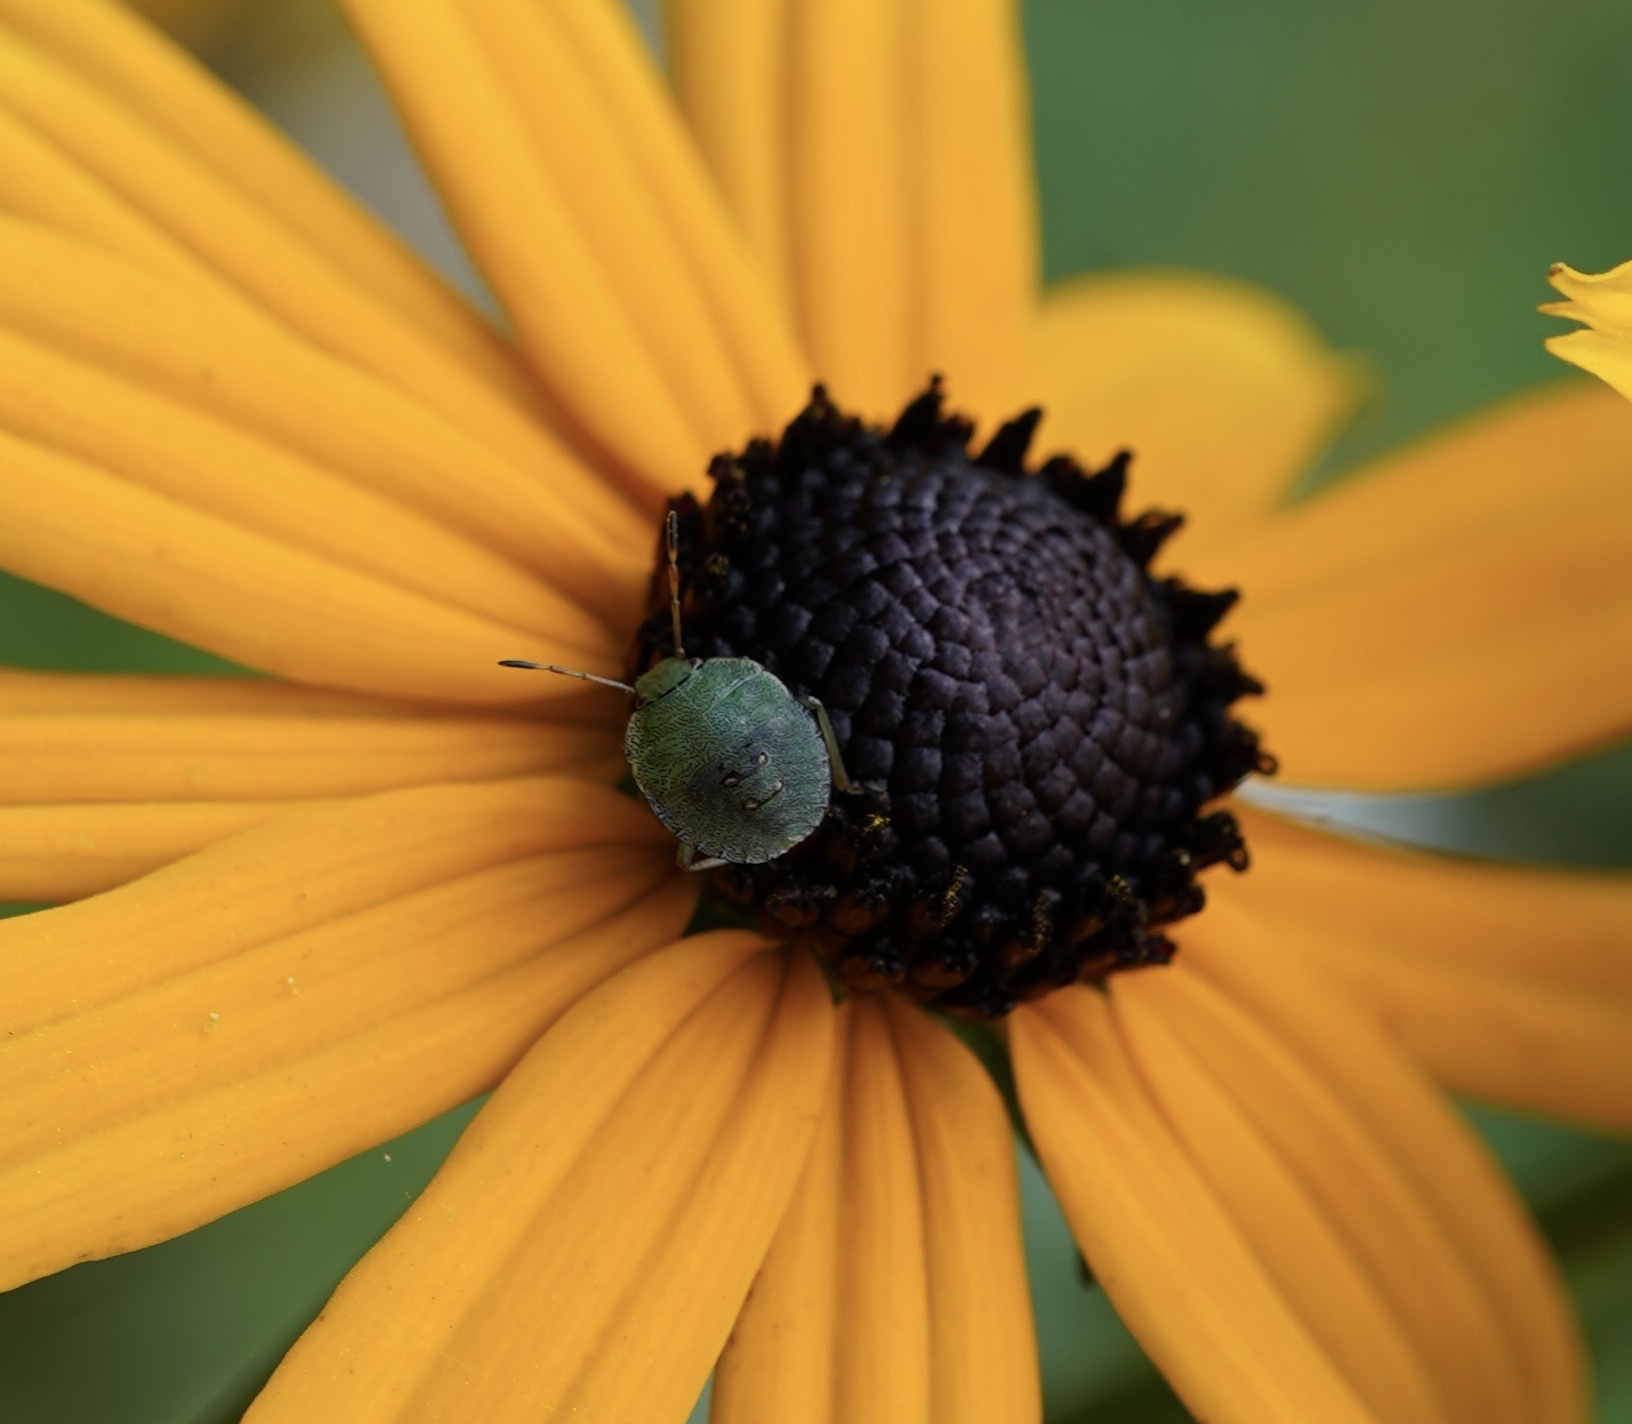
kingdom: Animalia
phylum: Arthropoda
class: Insecta
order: Hemiptera
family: Pentatomidae
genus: Palomena
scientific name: Palomena prasina
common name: Green shieldbug
